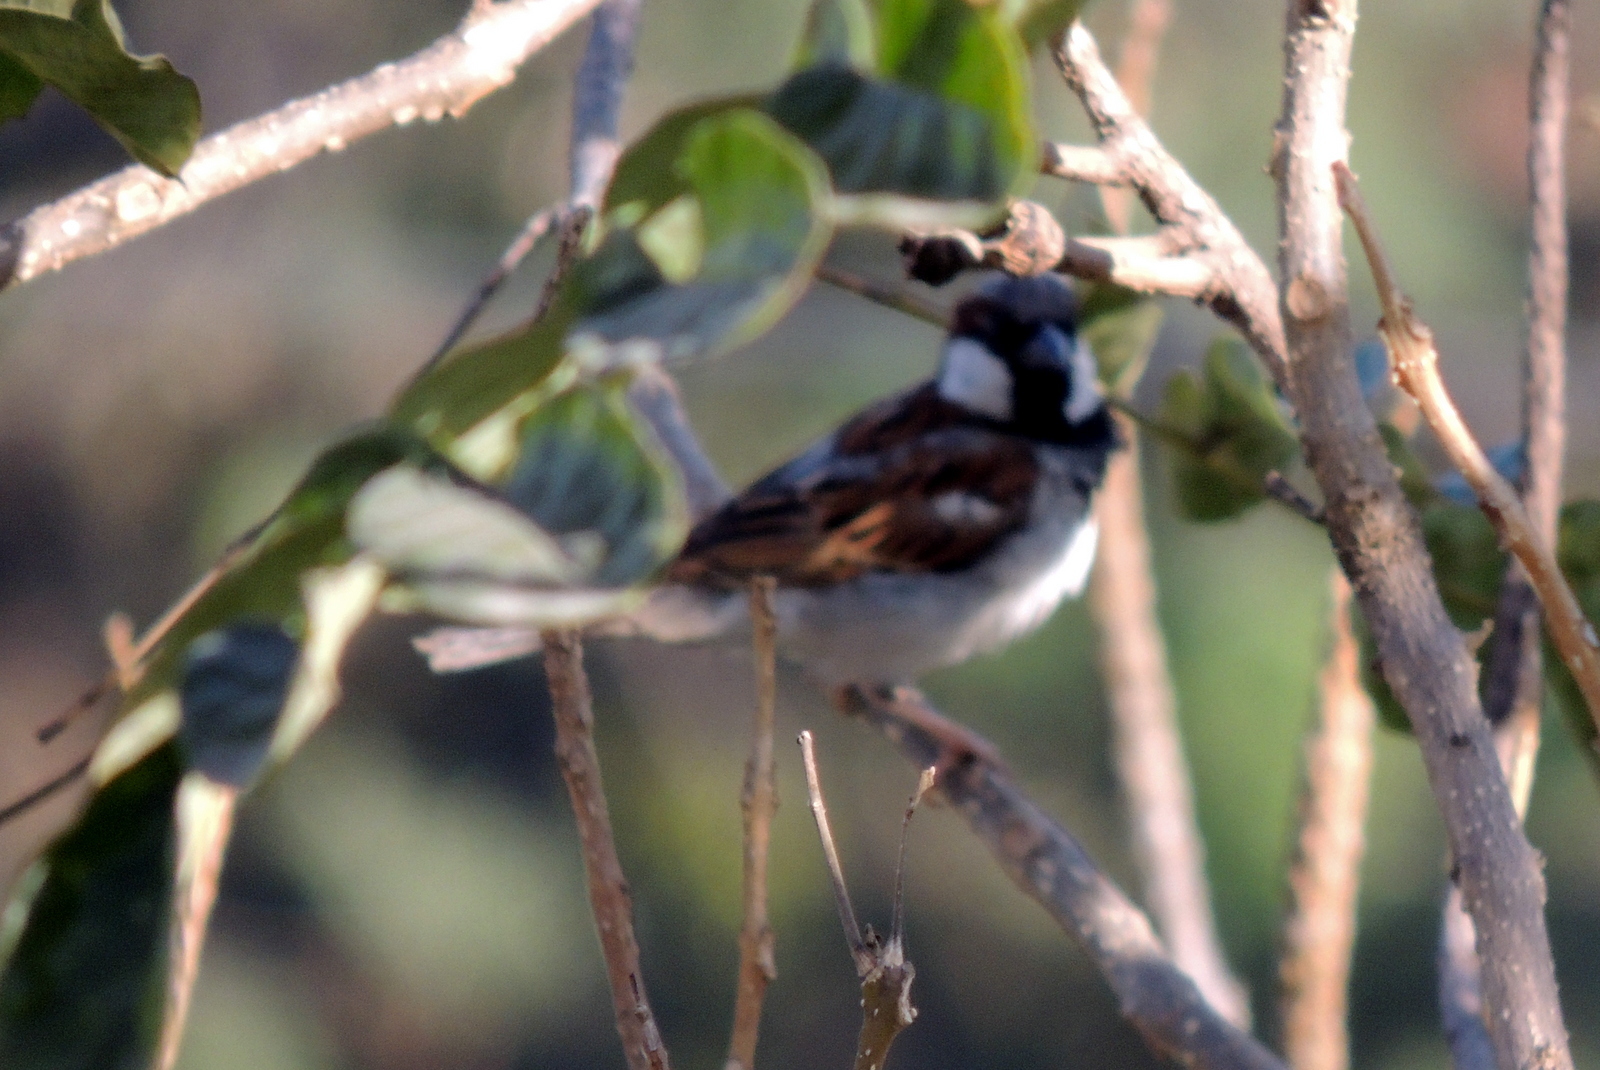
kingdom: Animalia
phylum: Chordata
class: Aves
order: Passeriformes
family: Passeridae
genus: Passer
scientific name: Passer domesticus
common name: House sparrow
